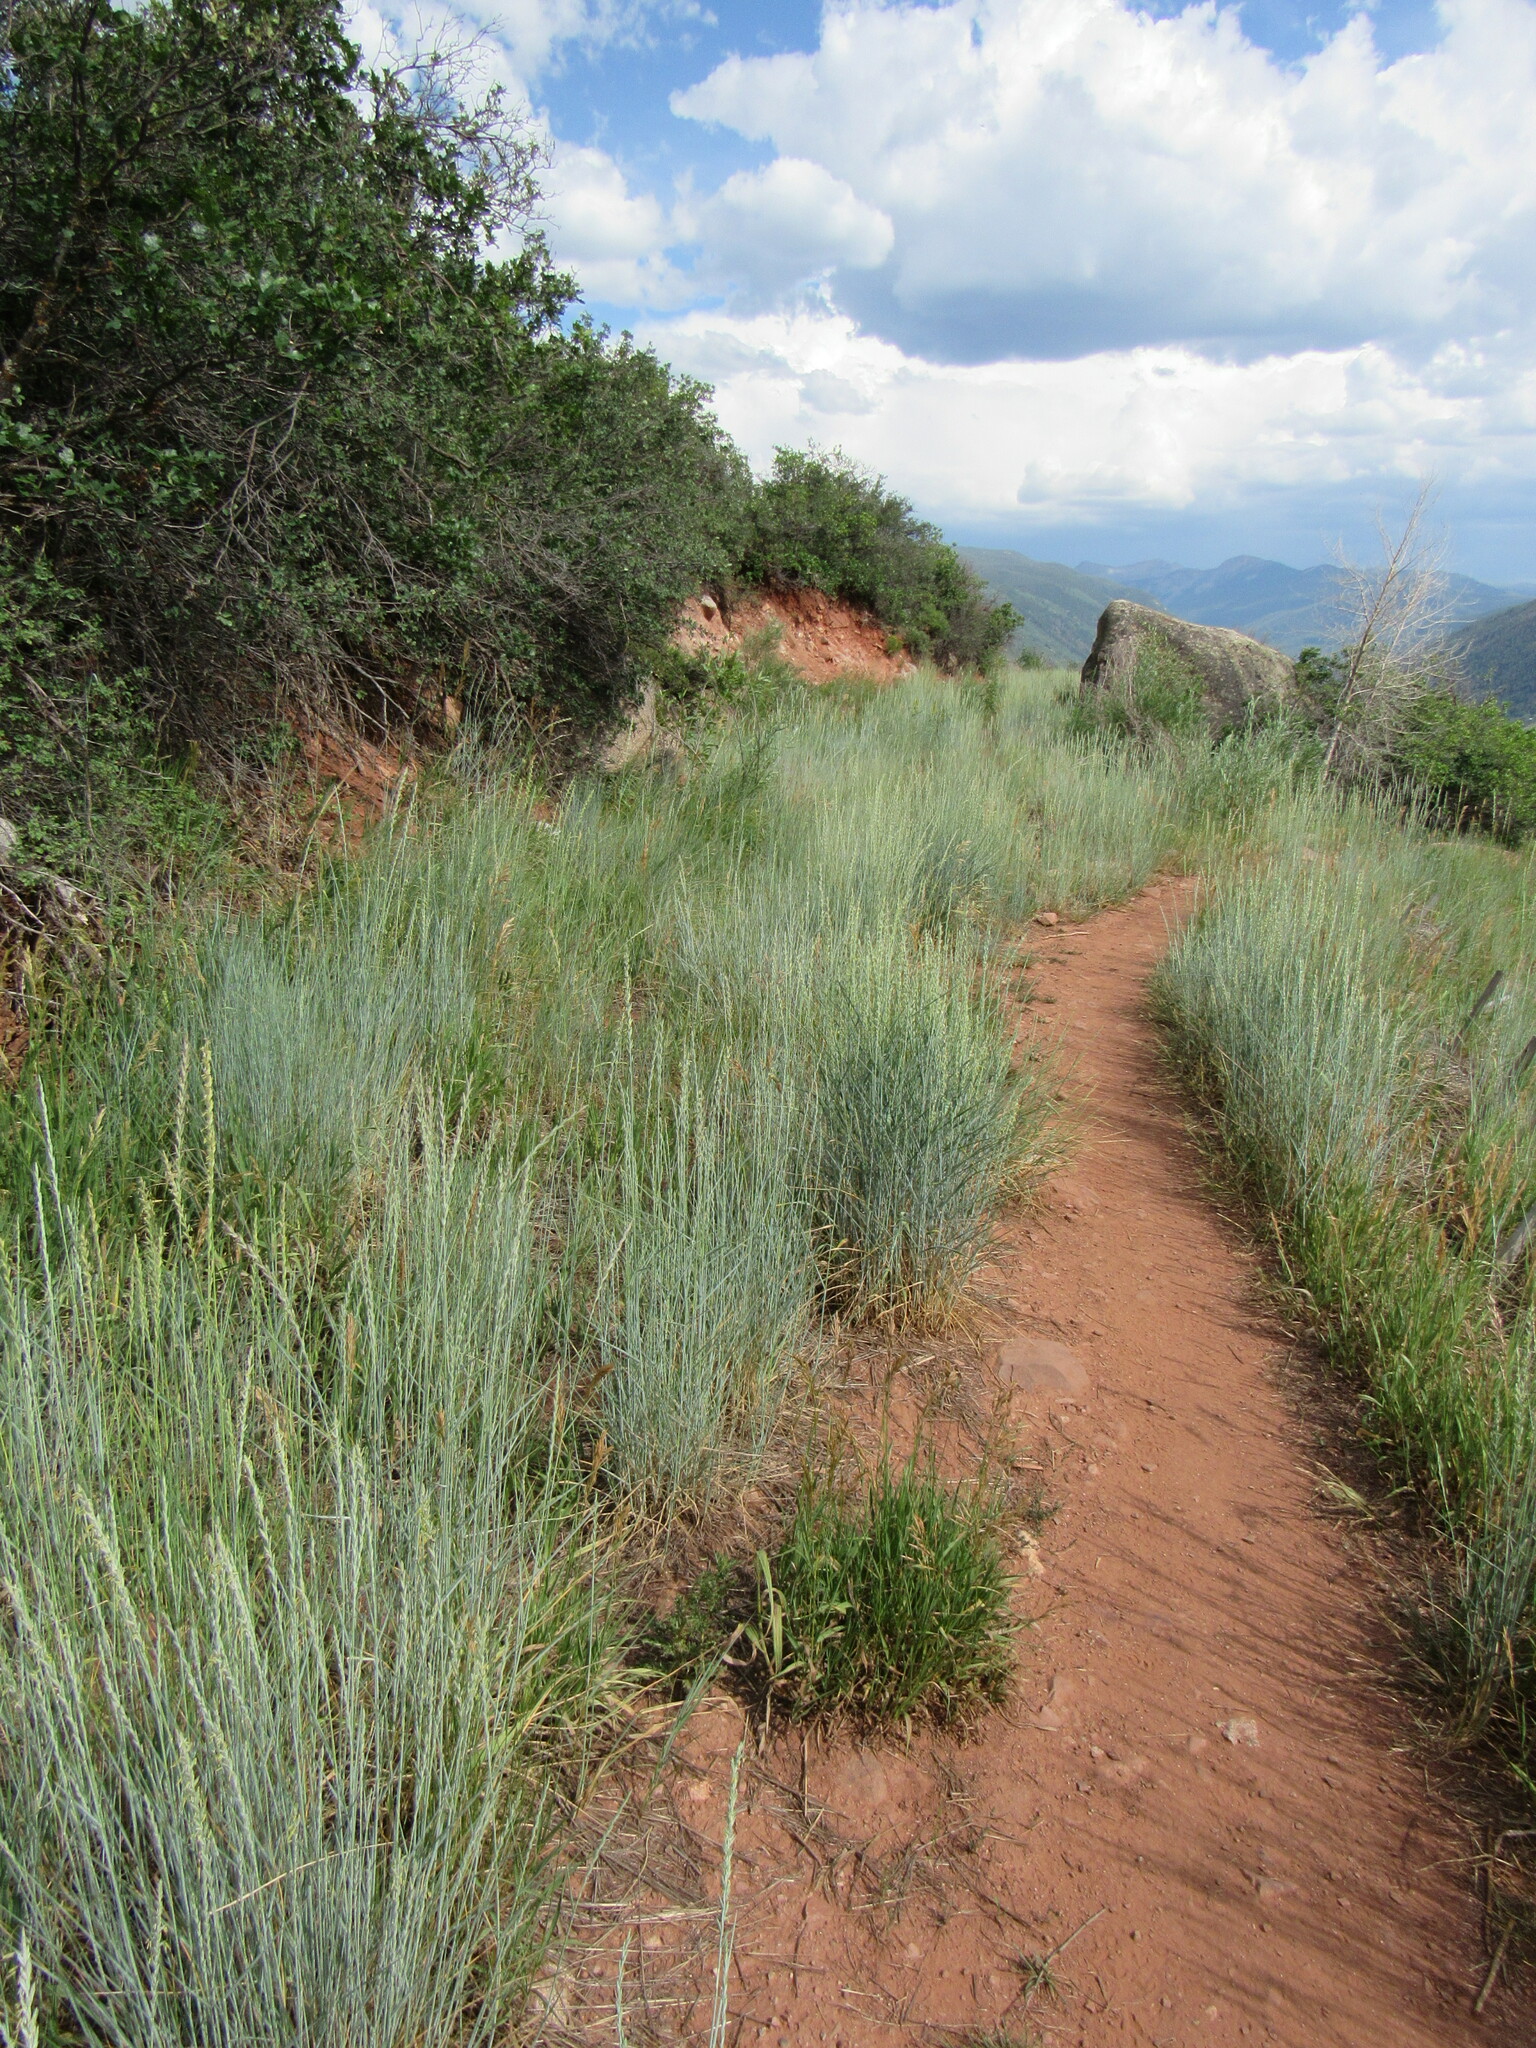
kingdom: Plantae
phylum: Tracheophyta
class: Liliopsida
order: Poales
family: Poaceae
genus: Thinopyrum
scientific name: Thinopyrum intermedium
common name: Intermediate wheatgrass
